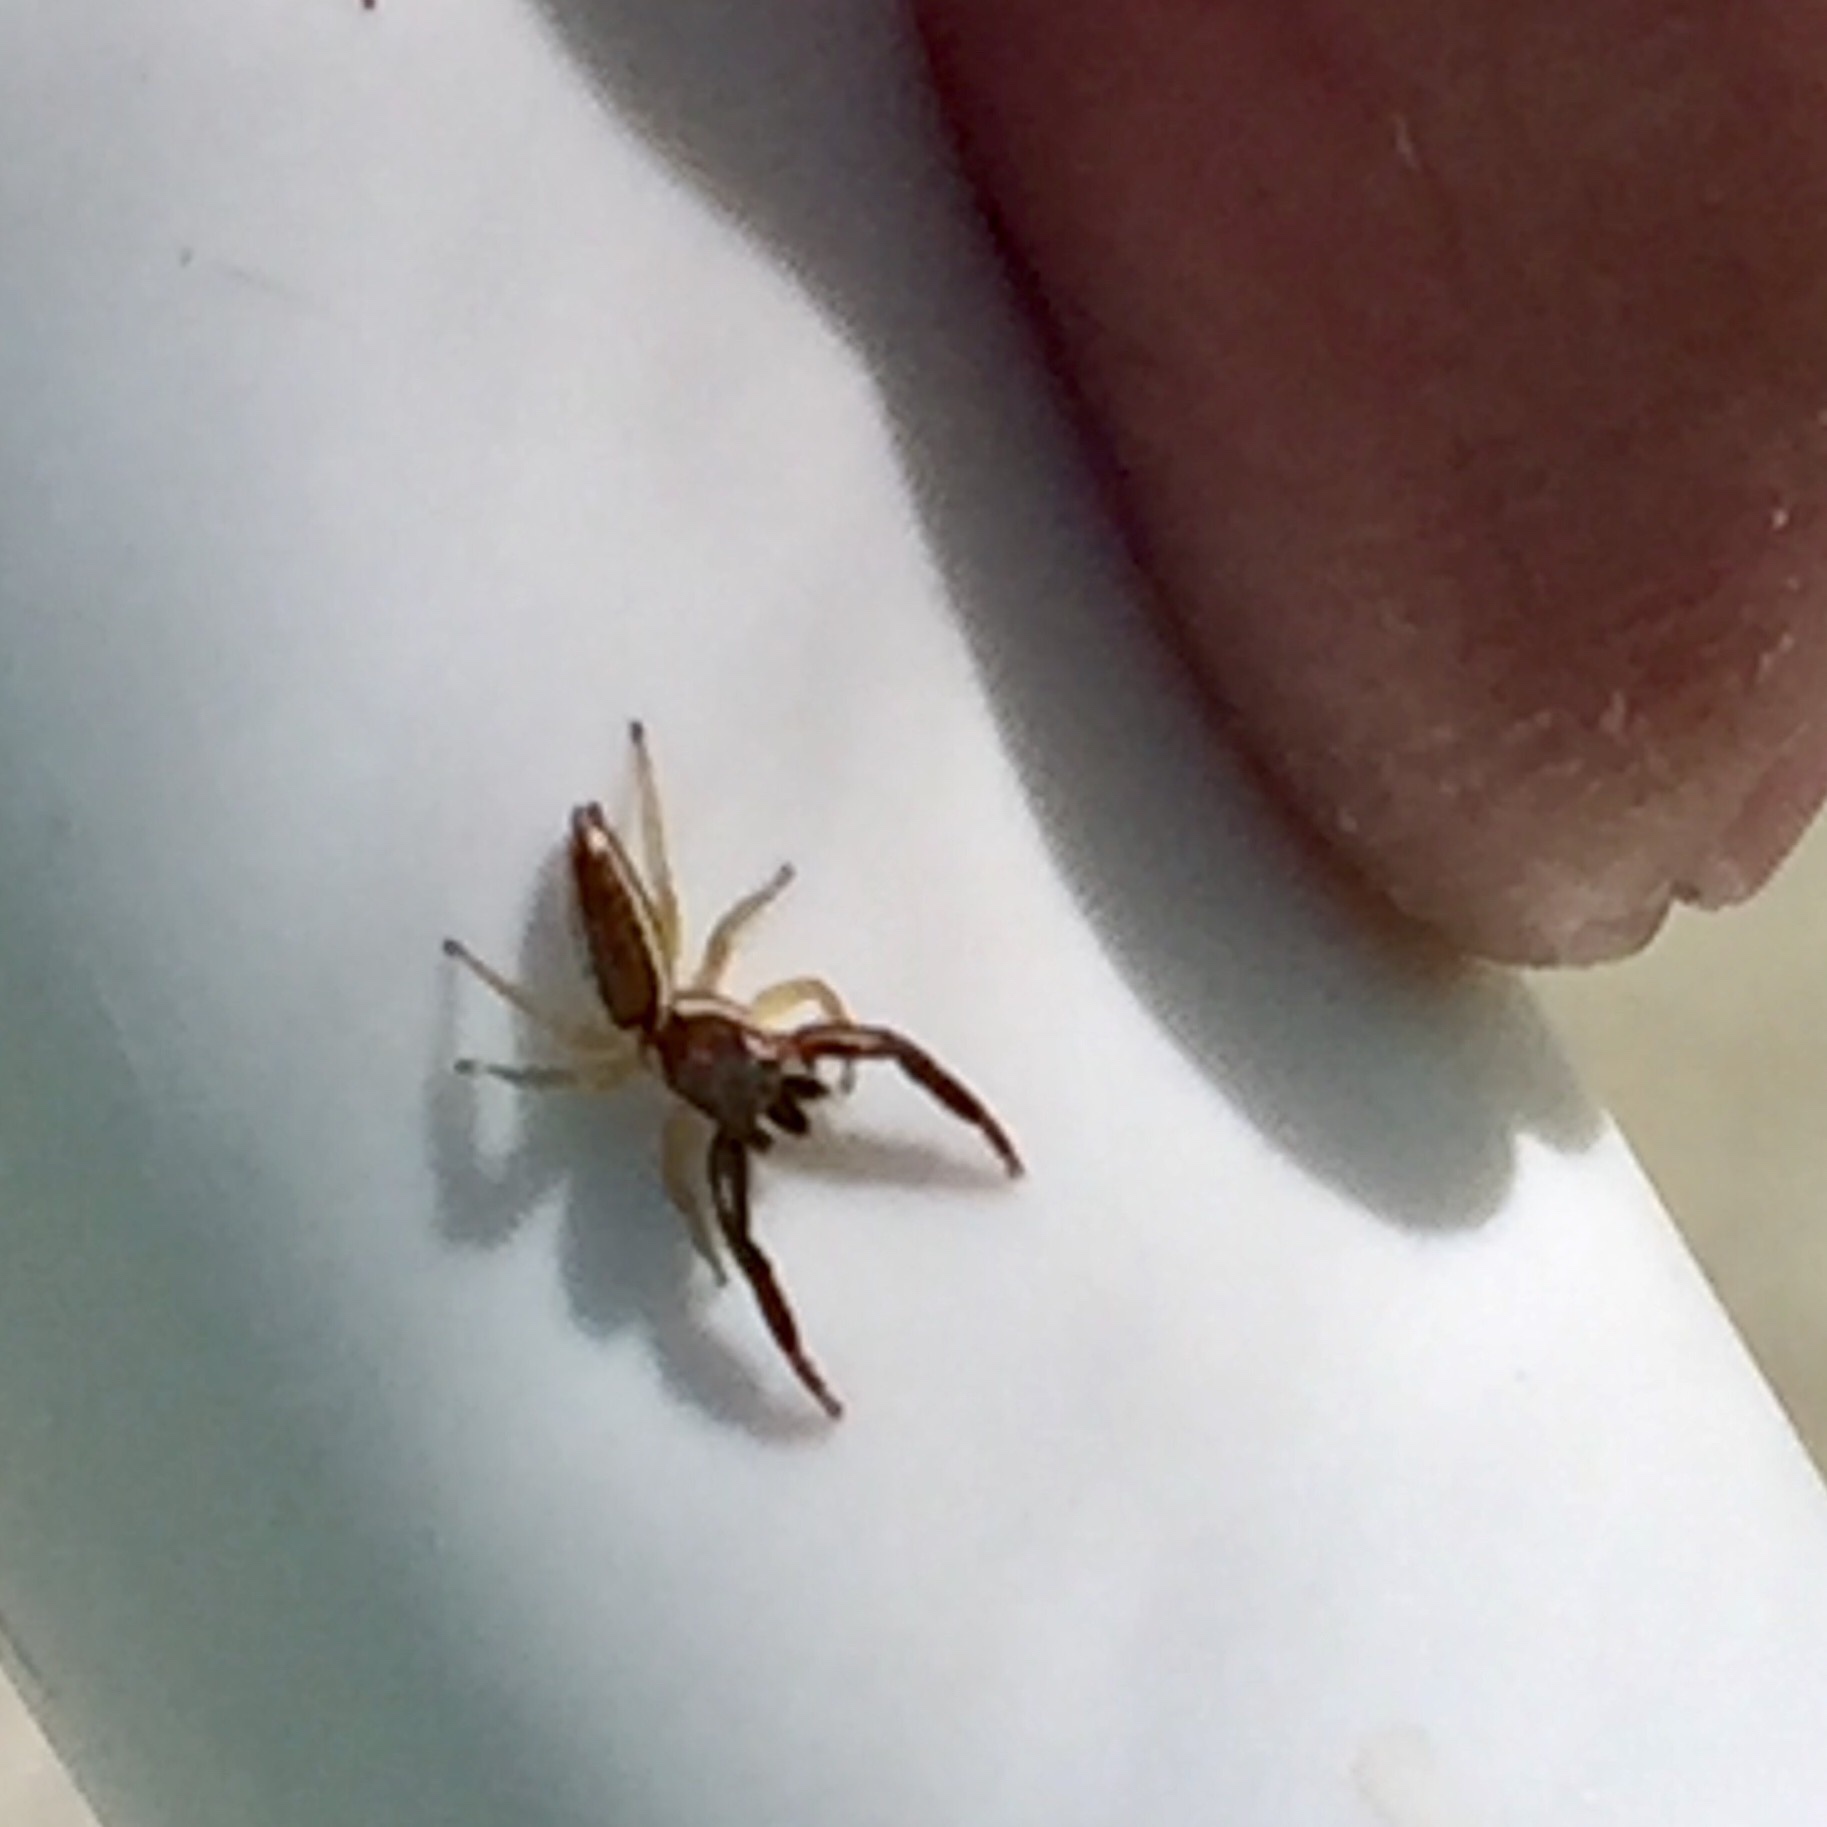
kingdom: Animalia
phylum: Arthropoda
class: Arachnida
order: Araneae
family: Salticidae
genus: Hentzia
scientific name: Hentzia palmarum
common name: Common hentz jumping spider
